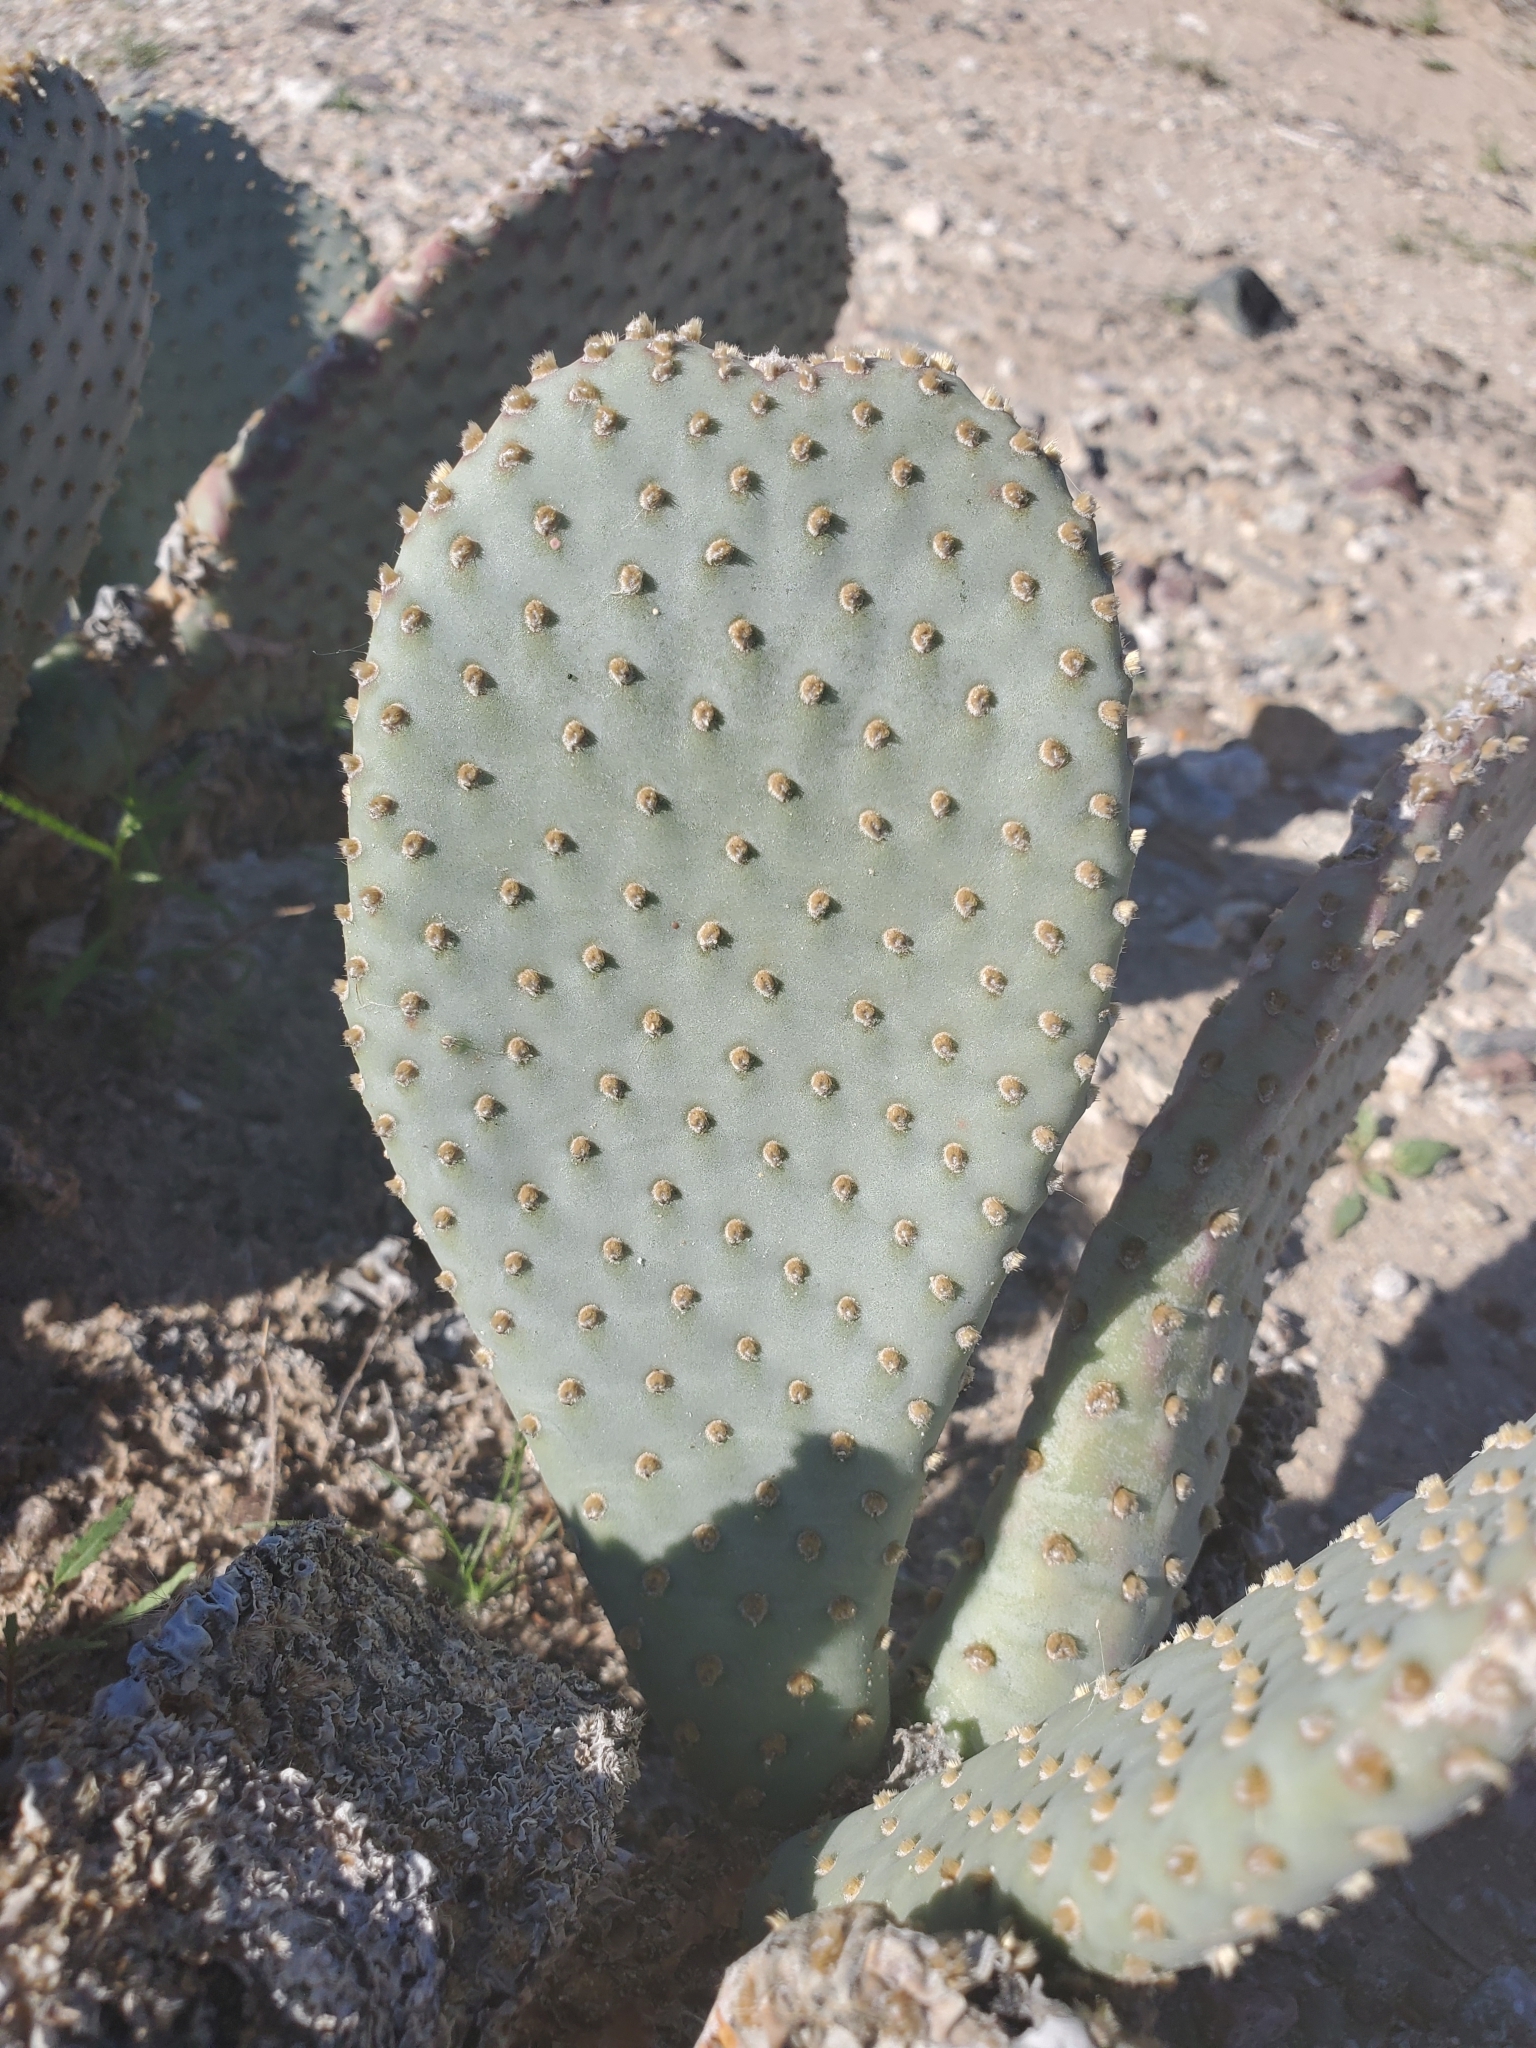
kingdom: Plantae
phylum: Tracheophyta
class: Magnoliopsida
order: Caryophyllales
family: Cactaceae
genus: Opuntia
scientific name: Opuntia basilaris
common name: Beavertail prickly-pear
